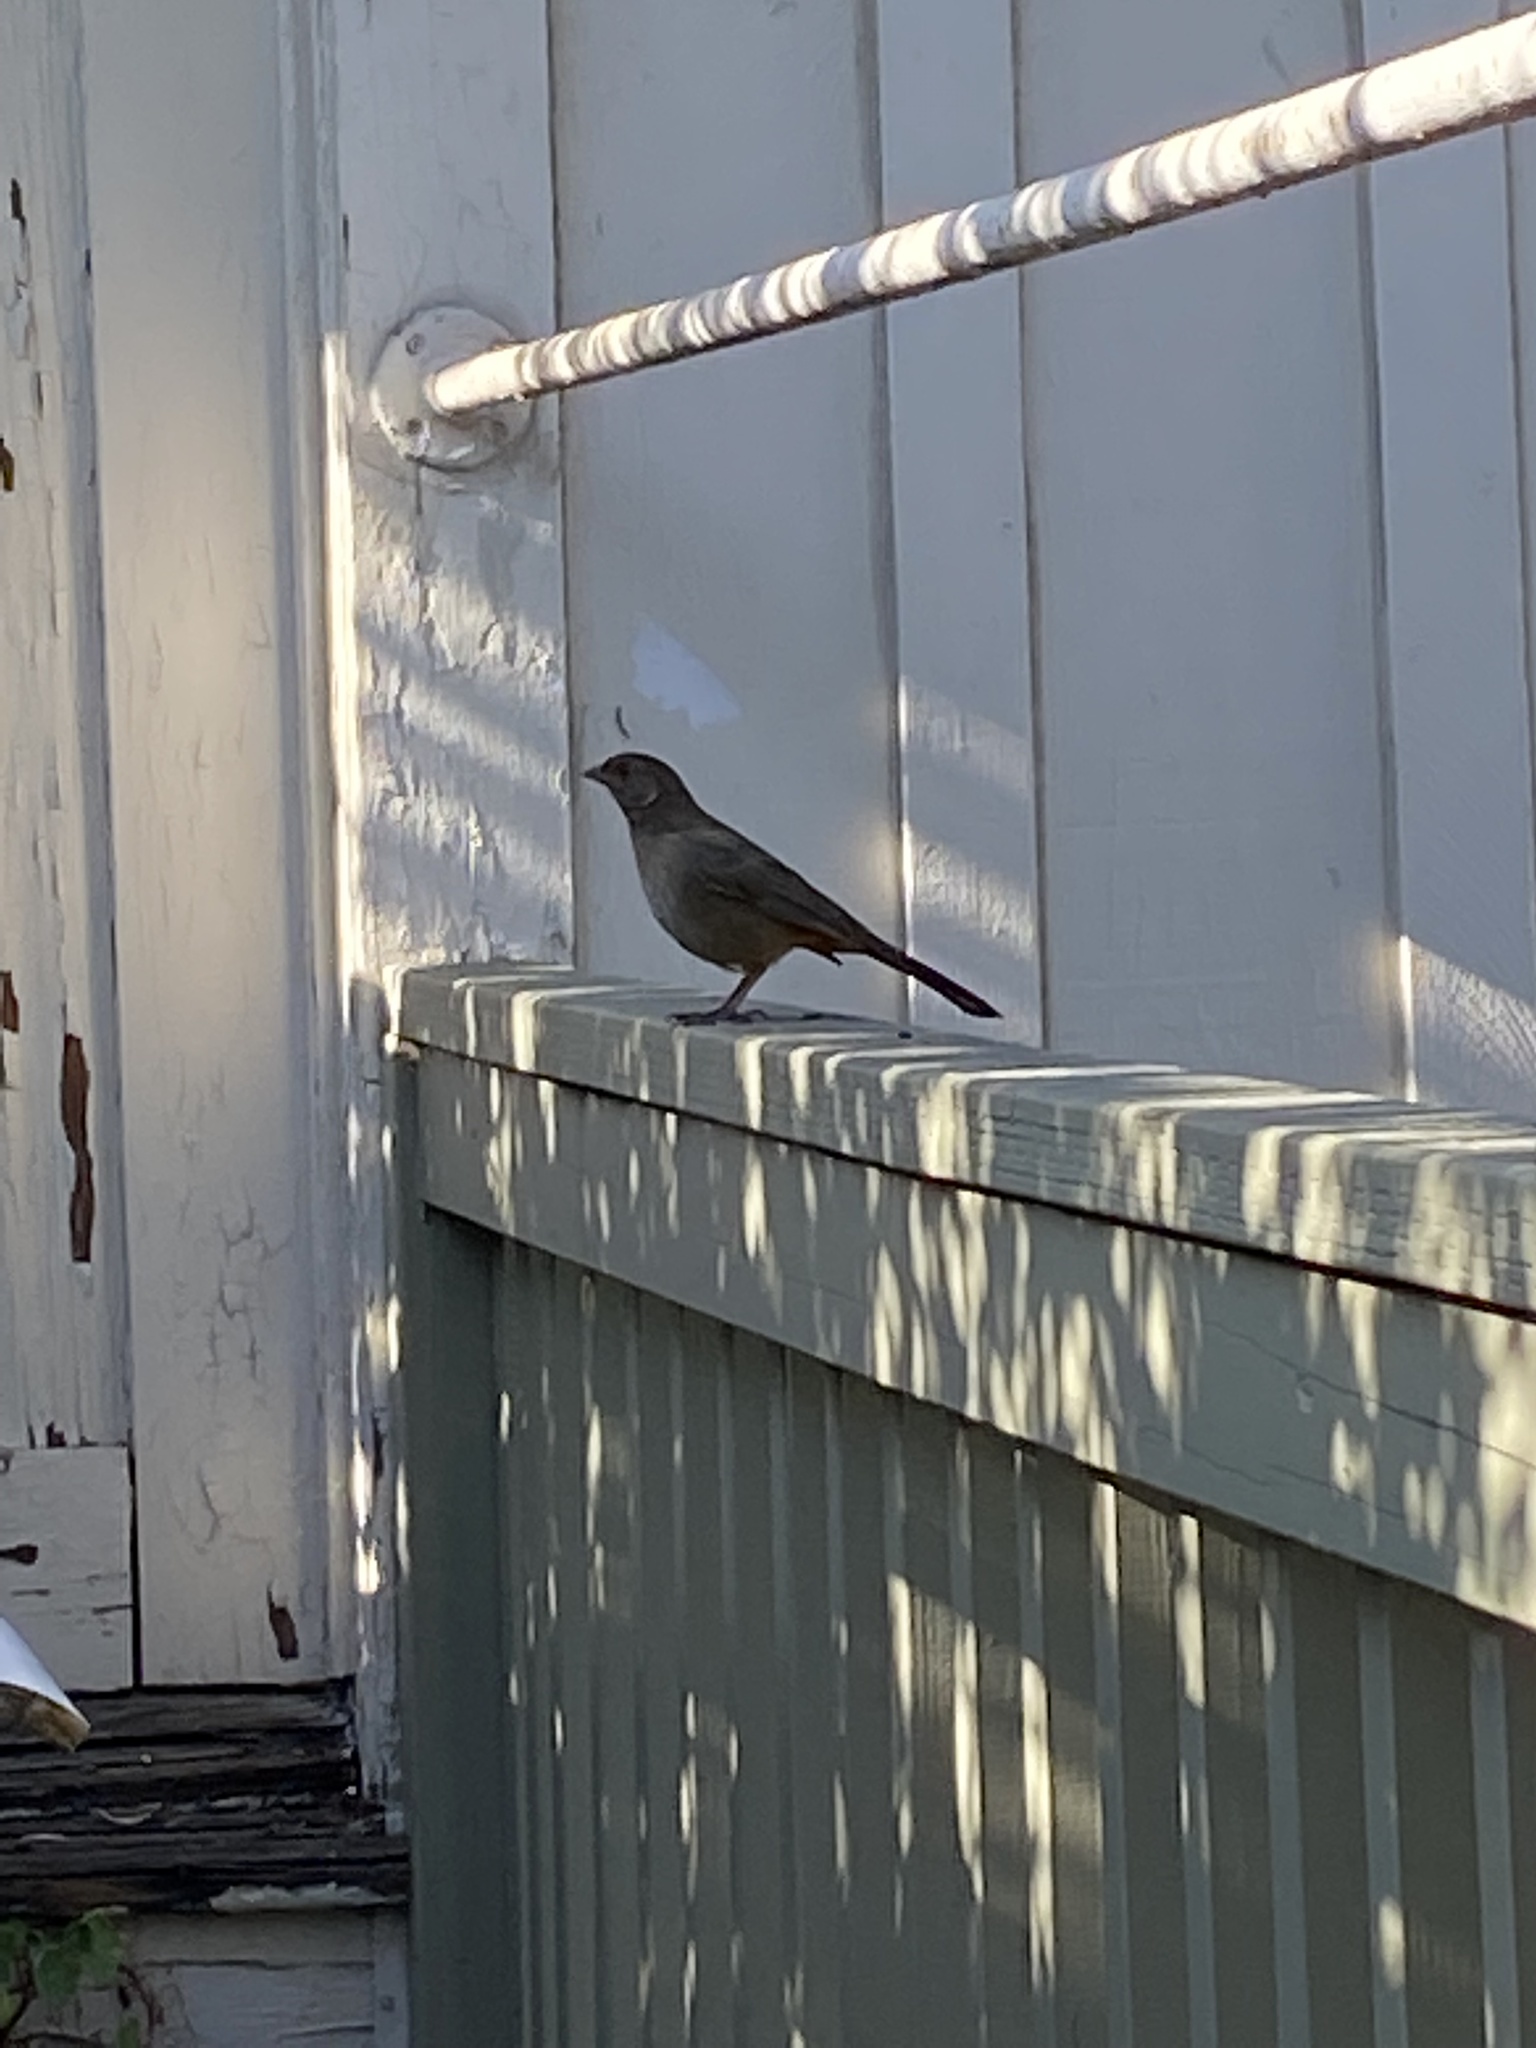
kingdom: Animalia
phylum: Chordata
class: Aves
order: Passeriformes
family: Passerellidae
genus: Melozone
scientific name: Melozone crissalis
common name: California towhee
